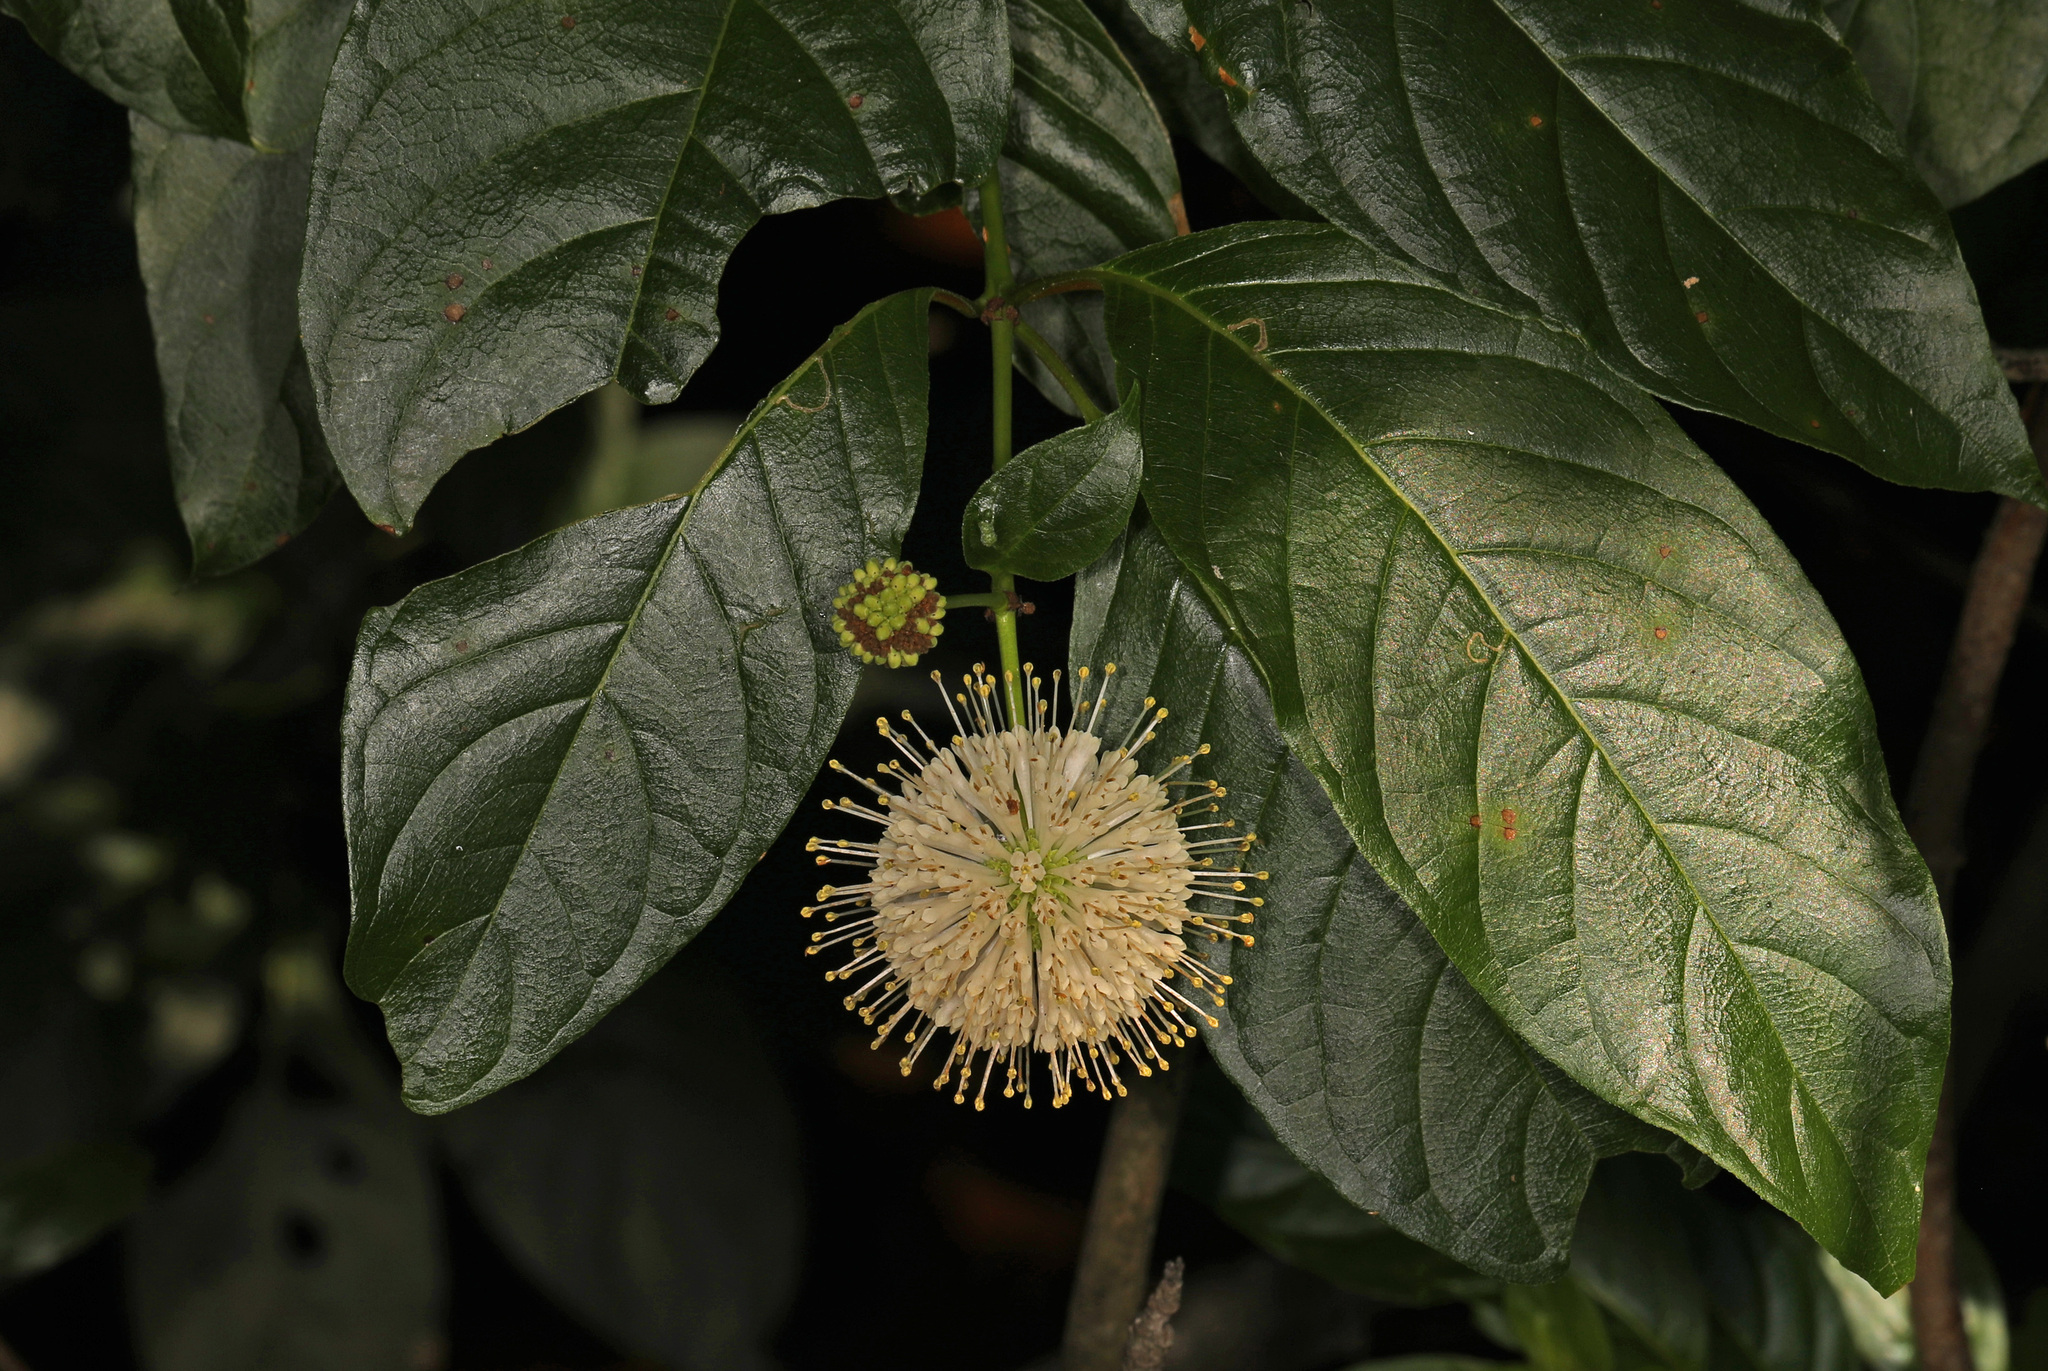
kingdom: Plantae
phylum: Tracheophyta
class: Magnoliopsida
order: Gentianales
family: Rubiaceae
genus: Cephalanthus
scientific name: Cephalanthus occidentalis
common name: Button-willow
